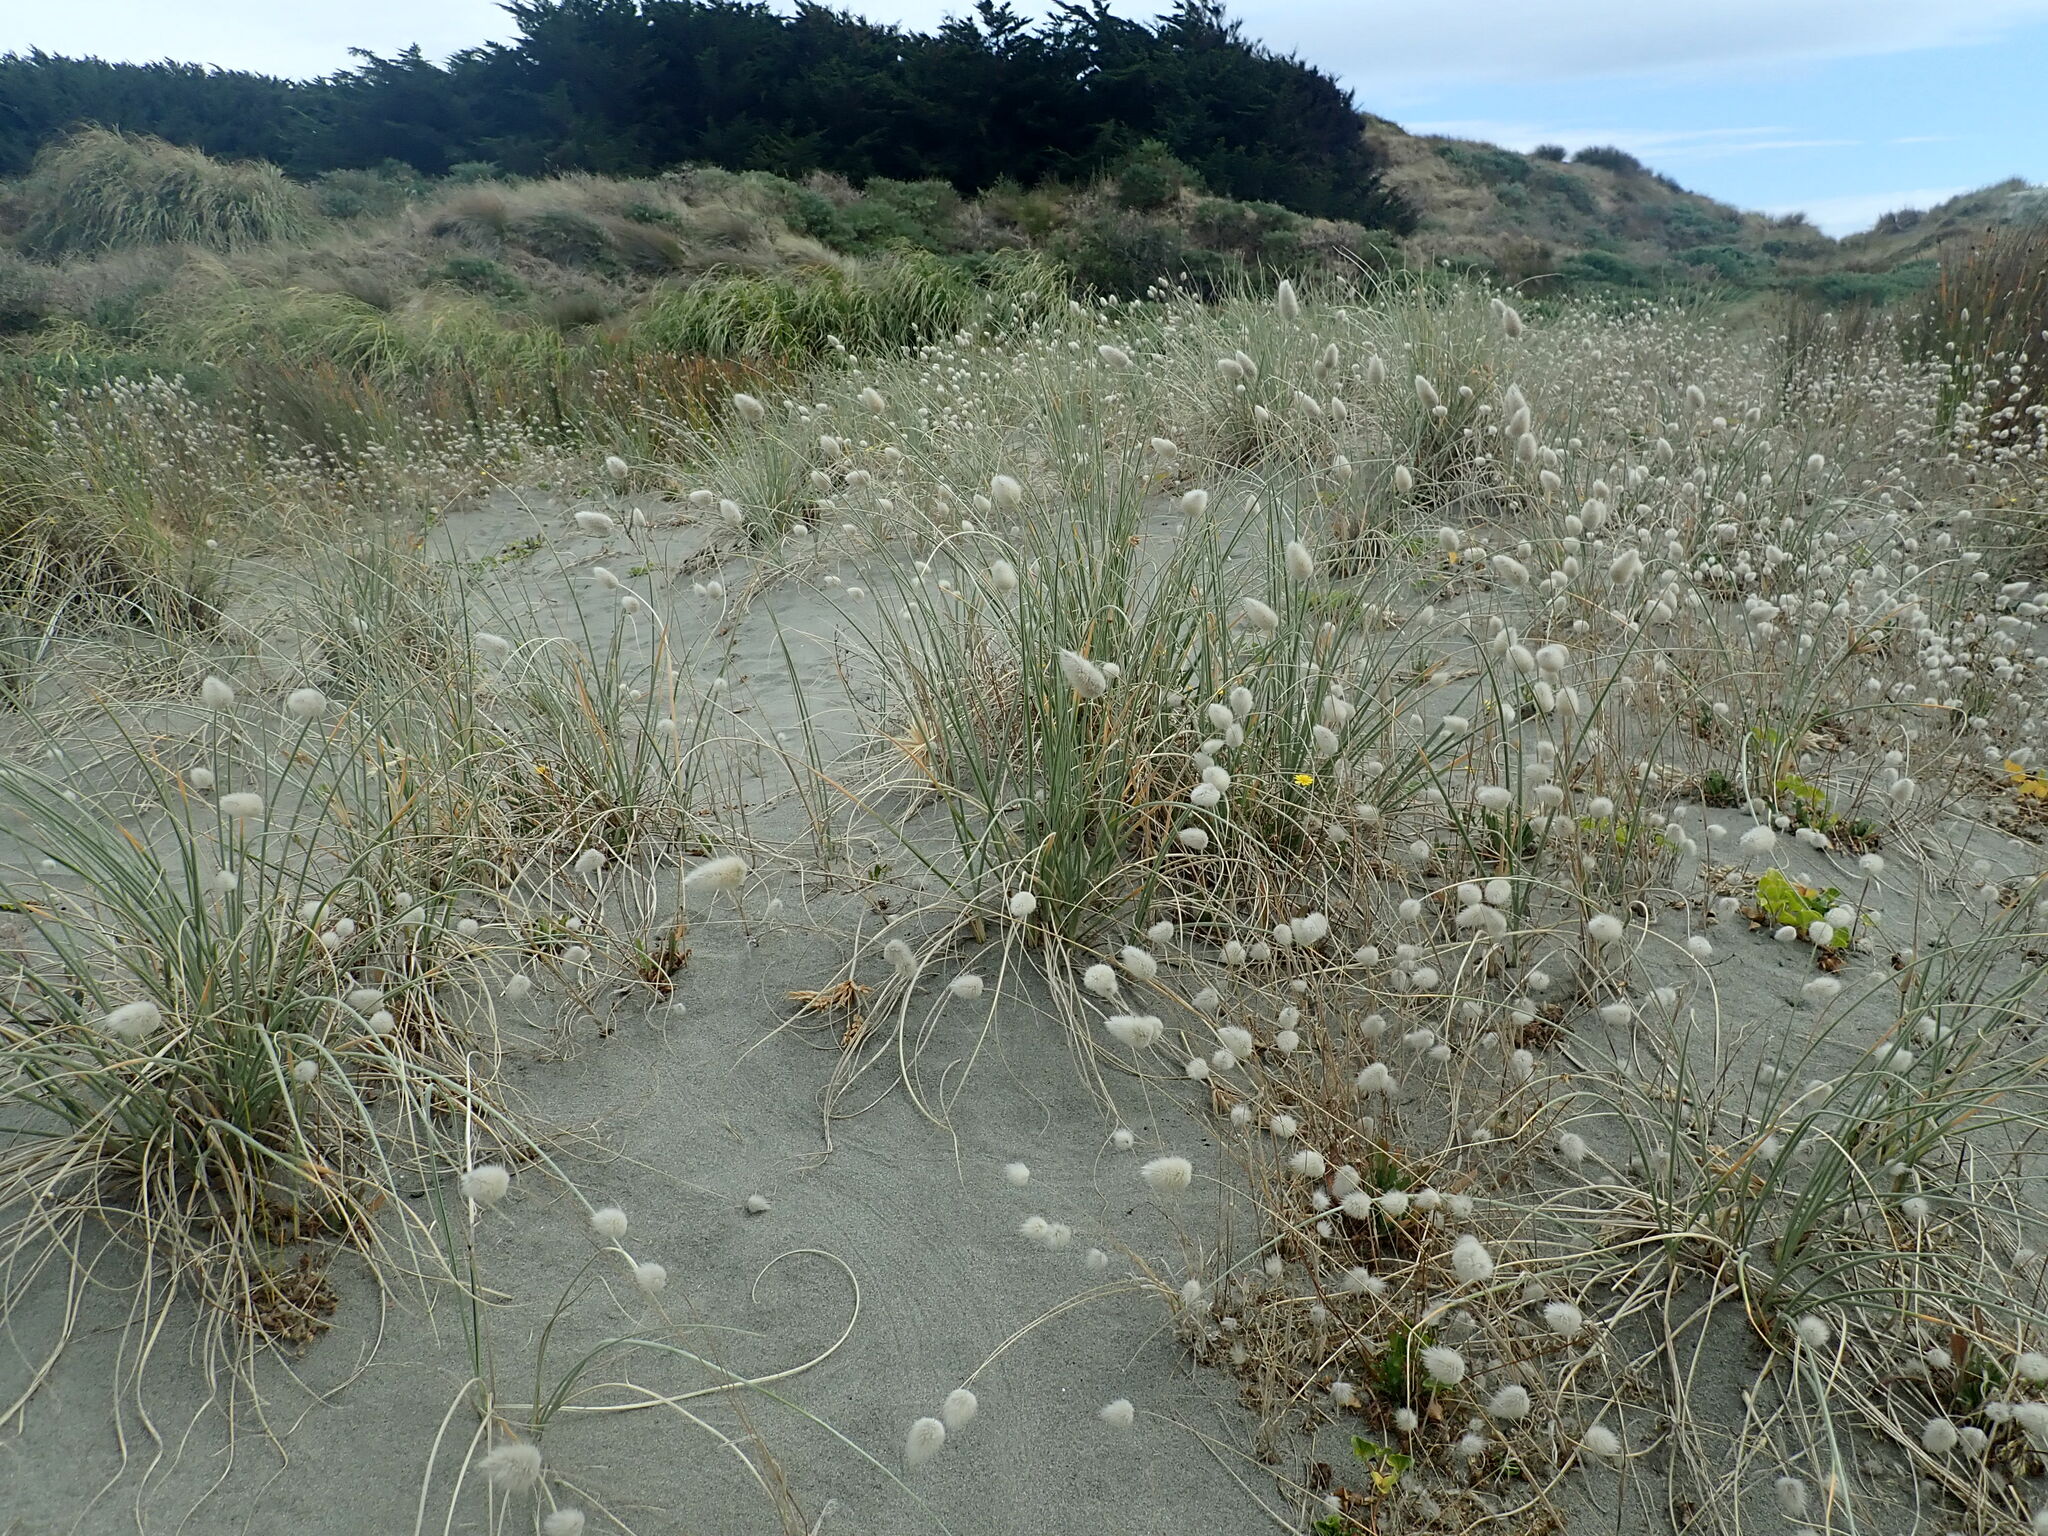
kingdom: Plantae
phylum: Tracheophyta
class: Liliopsida
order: Poales
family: Poaceae
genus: Lagurus
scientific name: Lagurus ovatus
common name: Hare's-tail
